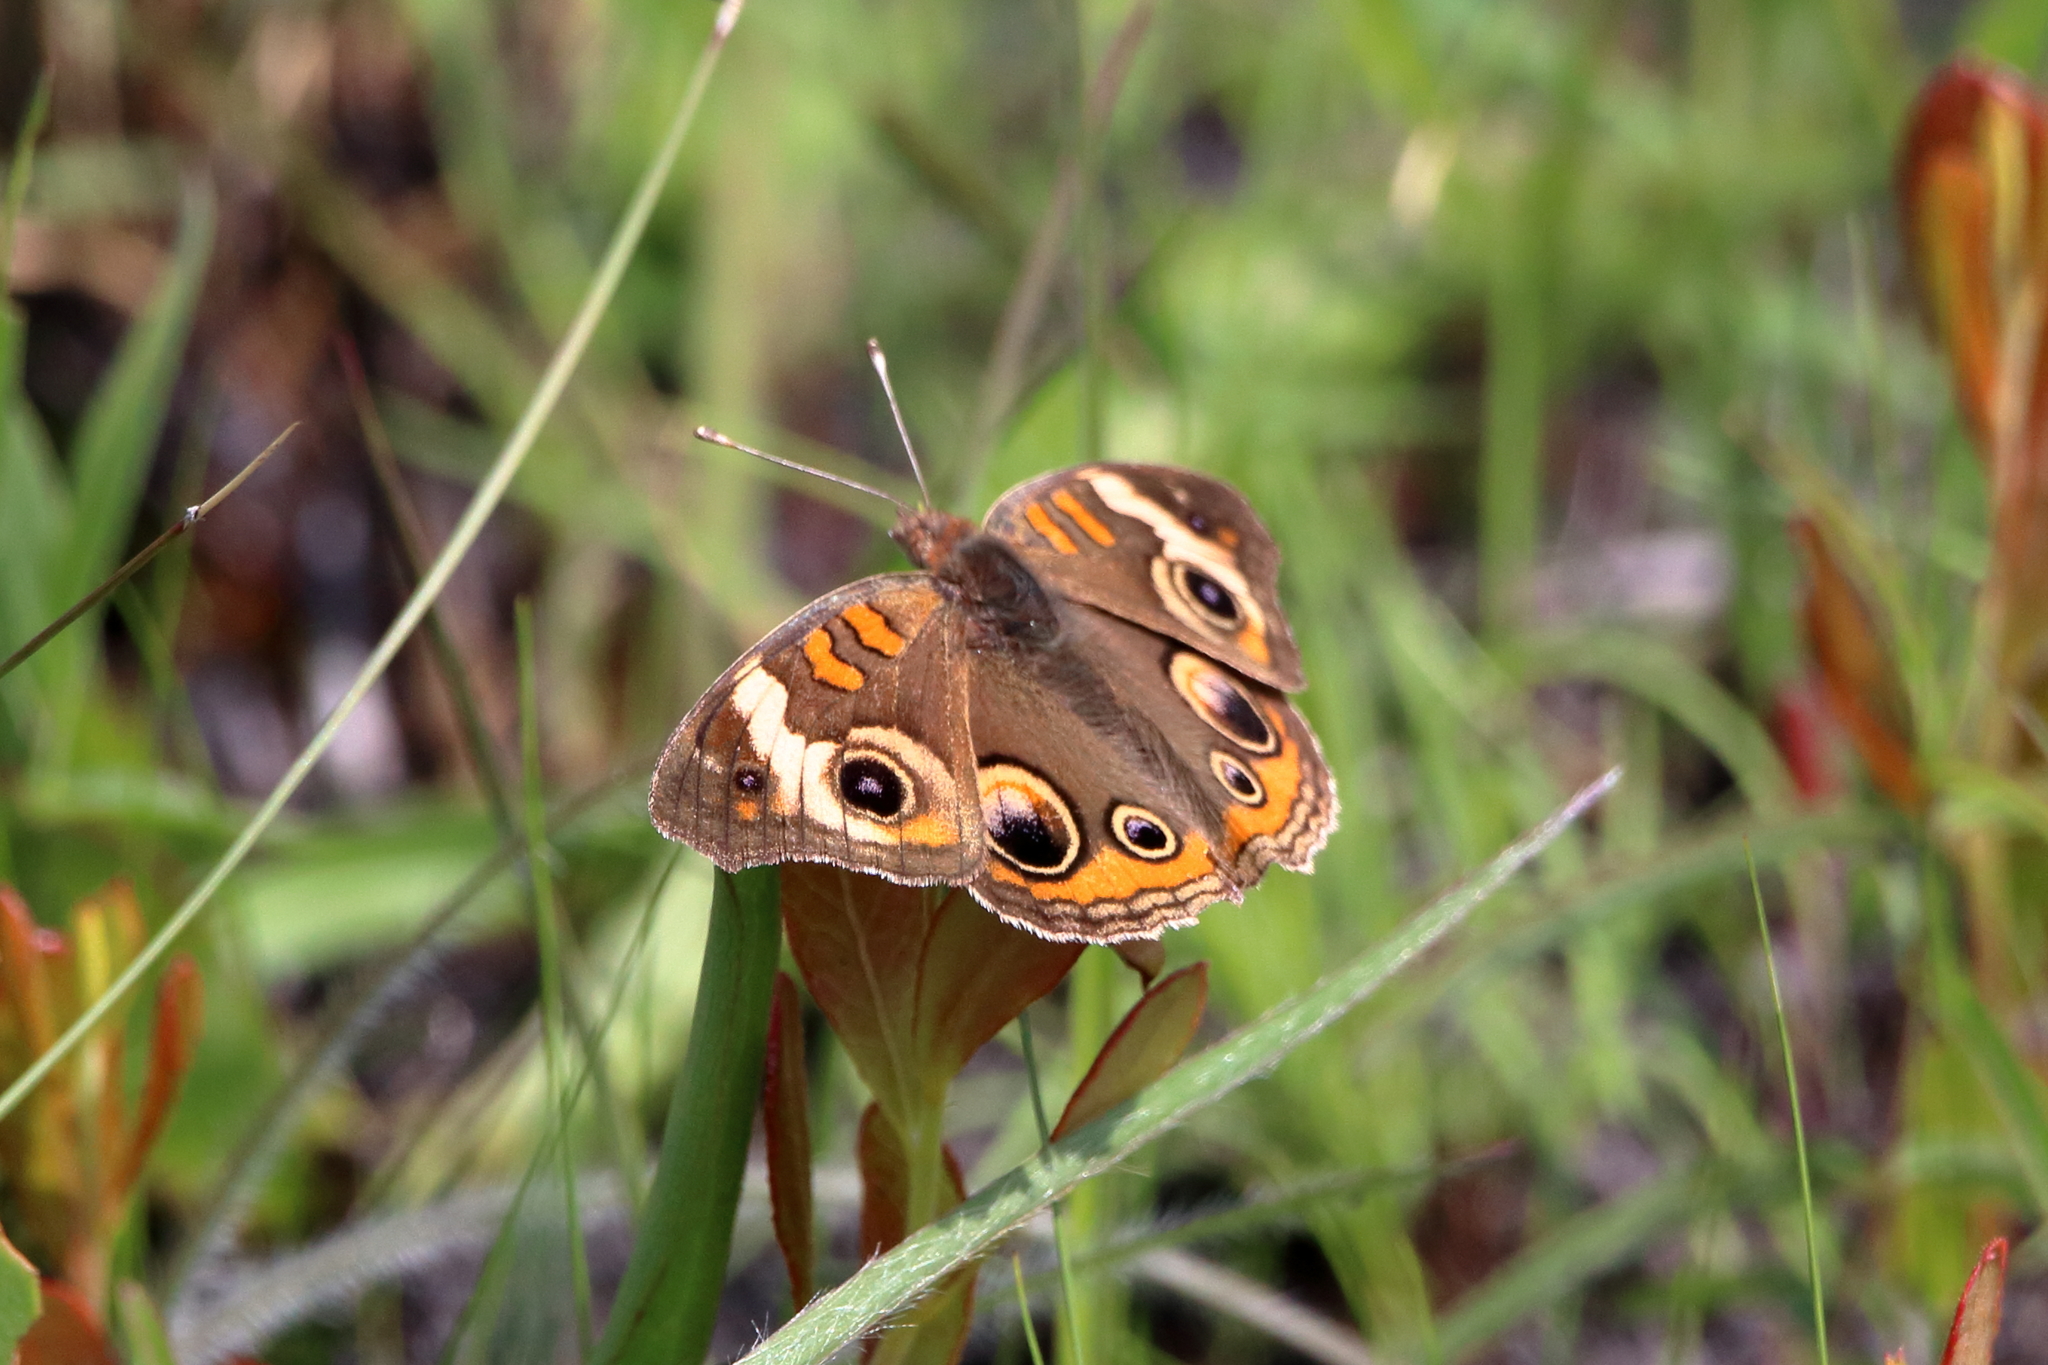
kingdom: Animalia
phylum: Arthropoda
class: Insecta
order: Lepidoptera
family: Nymphalidae
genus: Junonia
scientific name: Junonia coenia
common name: Common buckeye
